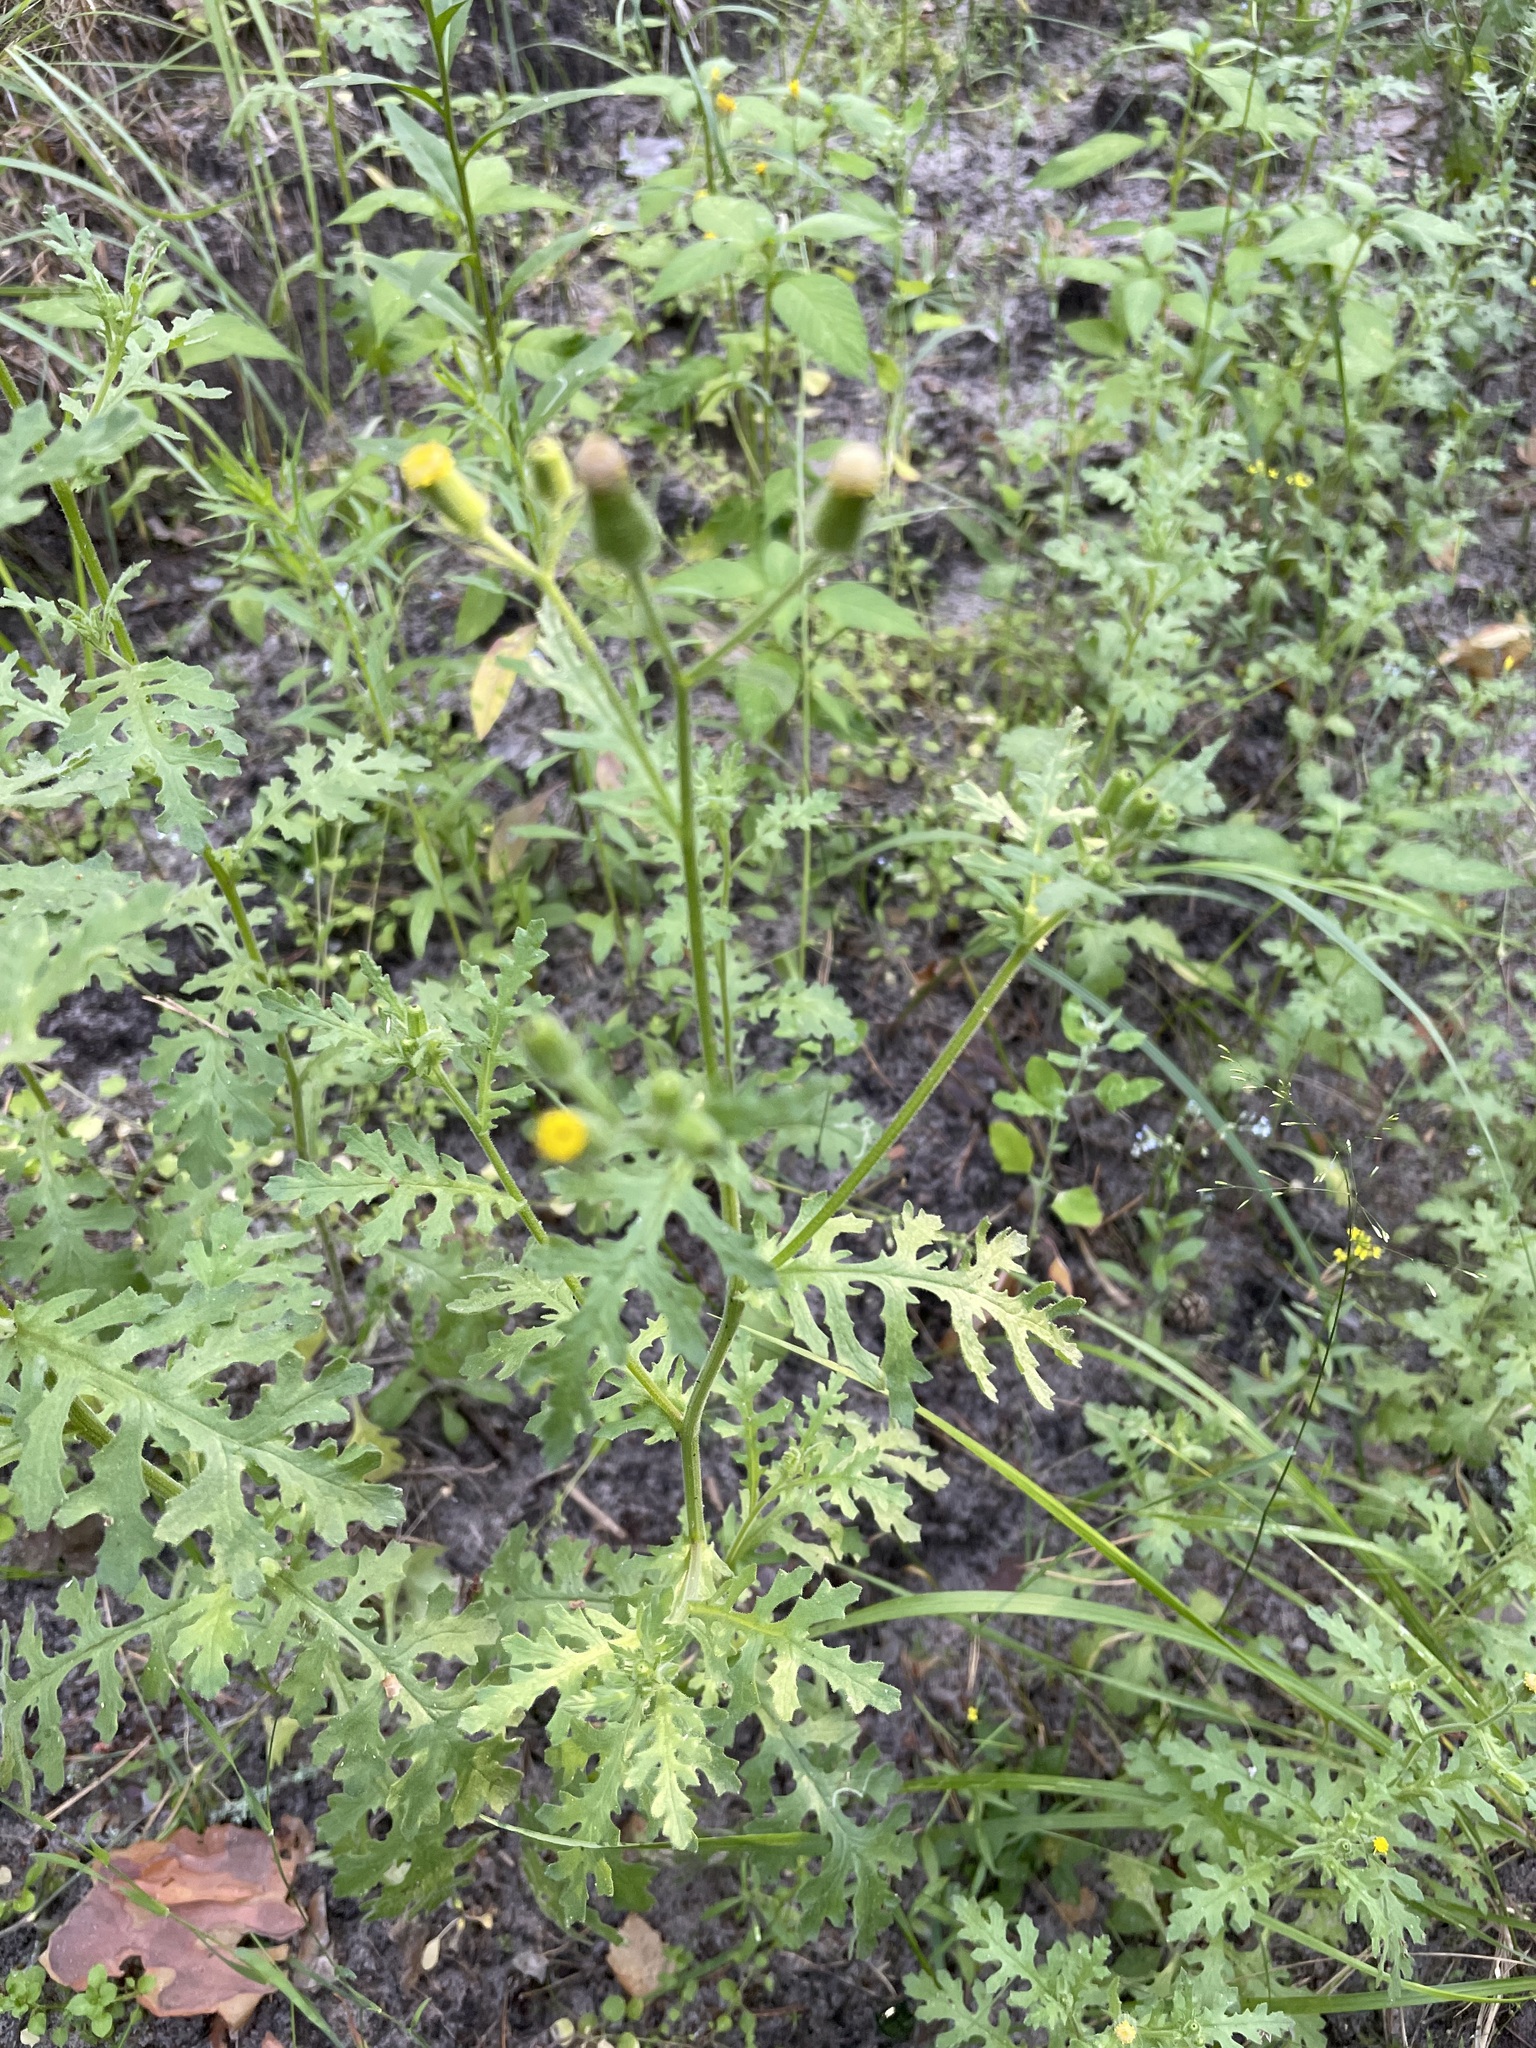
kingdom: Plantae
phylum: Tracheophyta
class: Magnoliopsida
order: Asterales
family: Asteraceae
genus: Senecio
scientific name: Senecio viscosus
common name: Sticky groundsel
